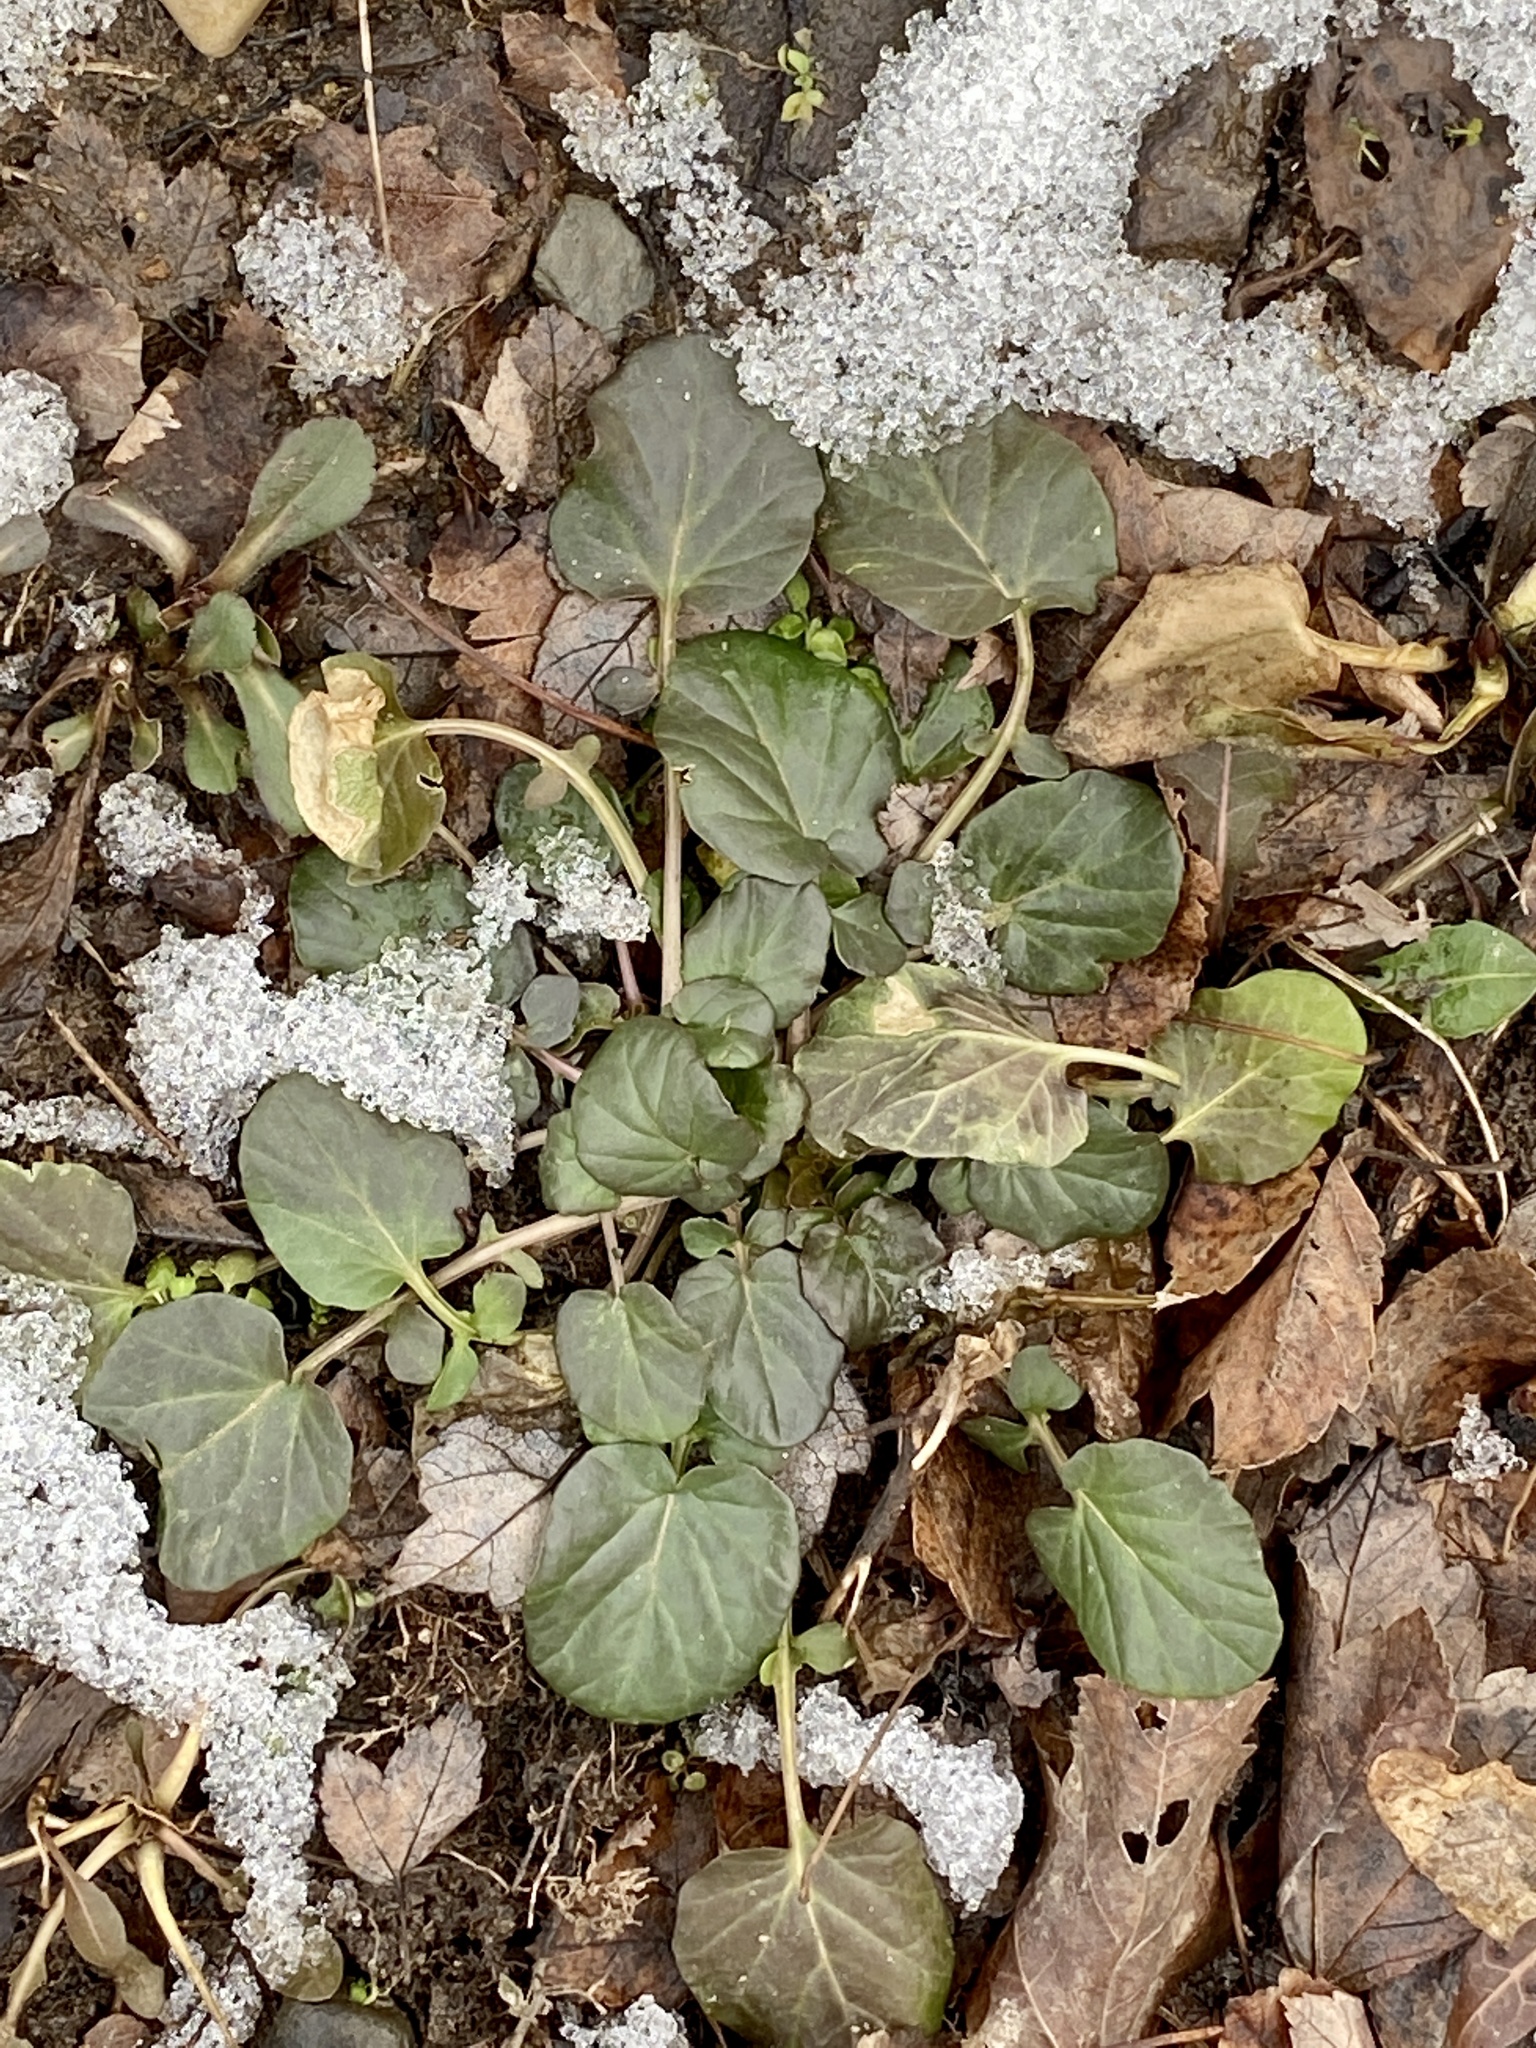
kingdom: Plantae
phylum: Tracheophyta
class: Magnoliopsida
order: Brassicales
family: Brassicaceae
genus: Barbarea
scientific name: Barbarea vulgaris
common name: Cressy-greens
